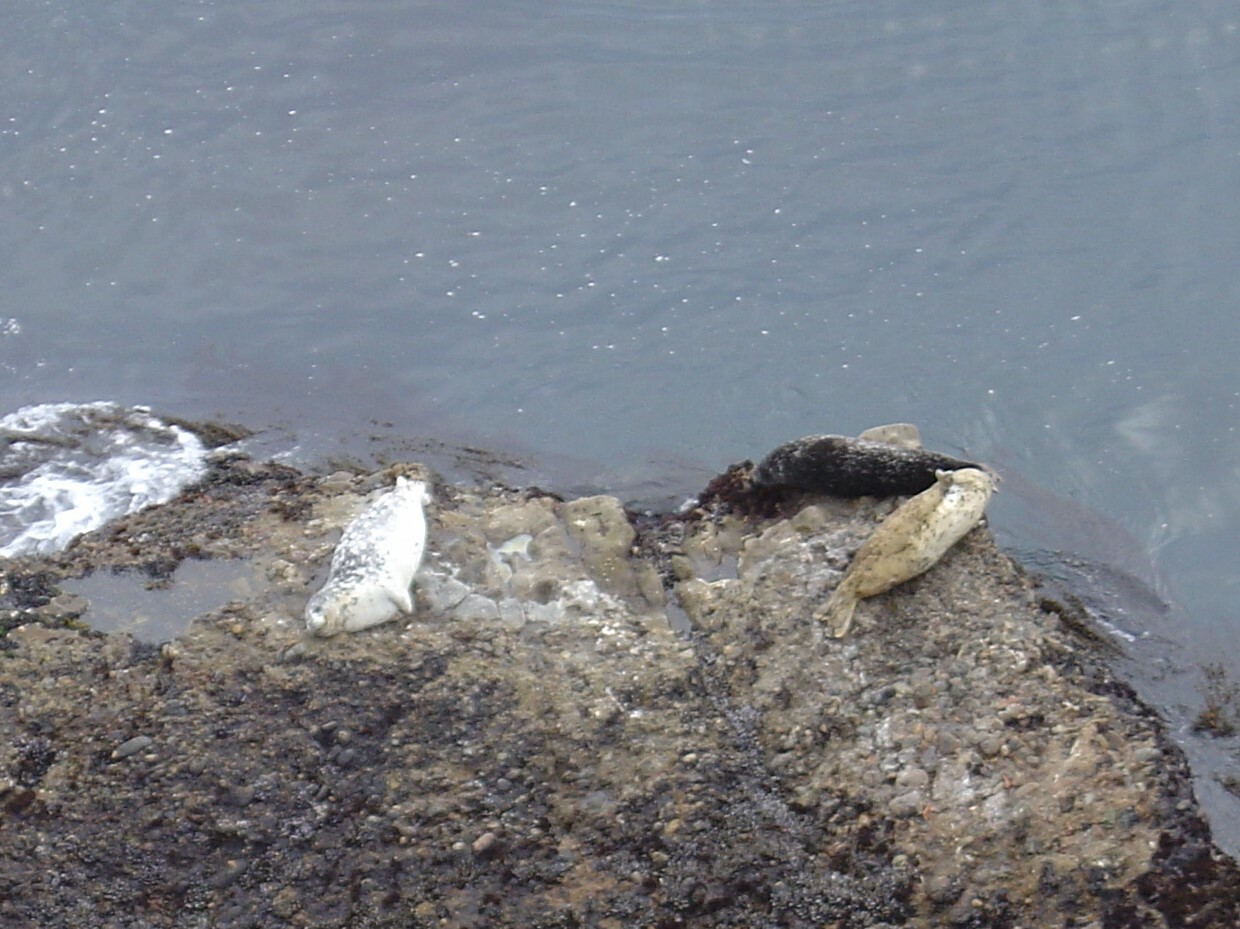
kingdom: Animalia
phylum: Chordata
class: Mammalia
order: Carnivora
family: Phocidae
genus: Phoca
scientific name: Phoca vitulina
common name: Harbor seal
